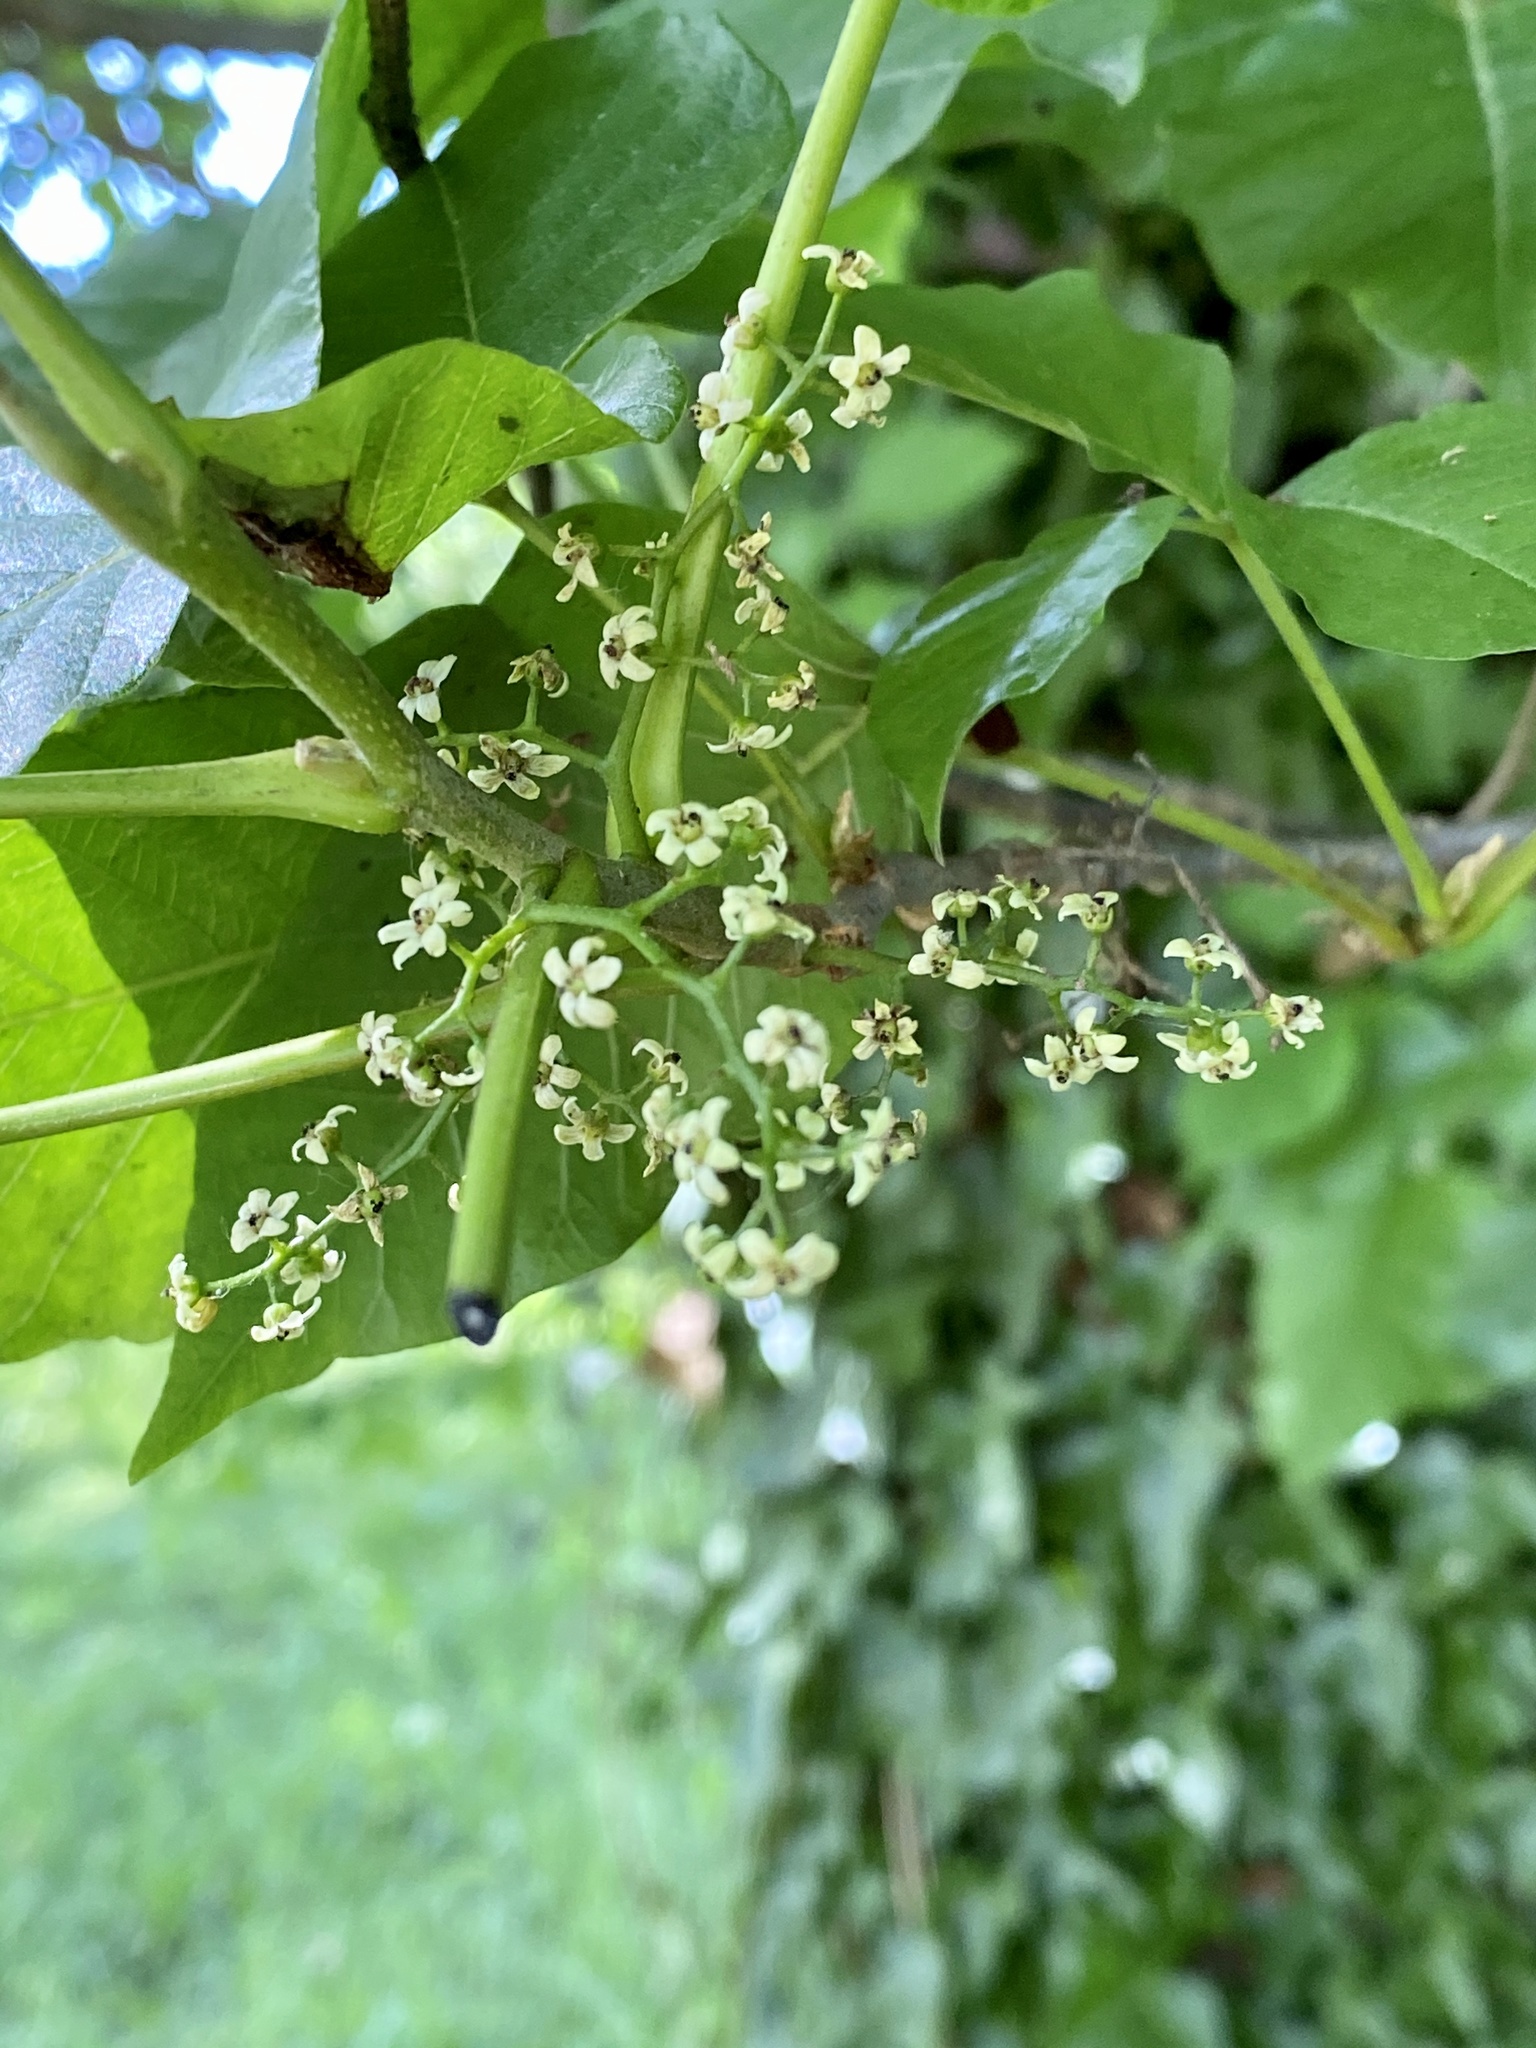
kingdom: Plantae
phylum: Tracheophyta
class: Magnoliopsida
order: Sapindales
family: Anacardiaceae
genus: Toxicodendron
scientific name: Toxicodendron radicans
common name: Poison ivy
